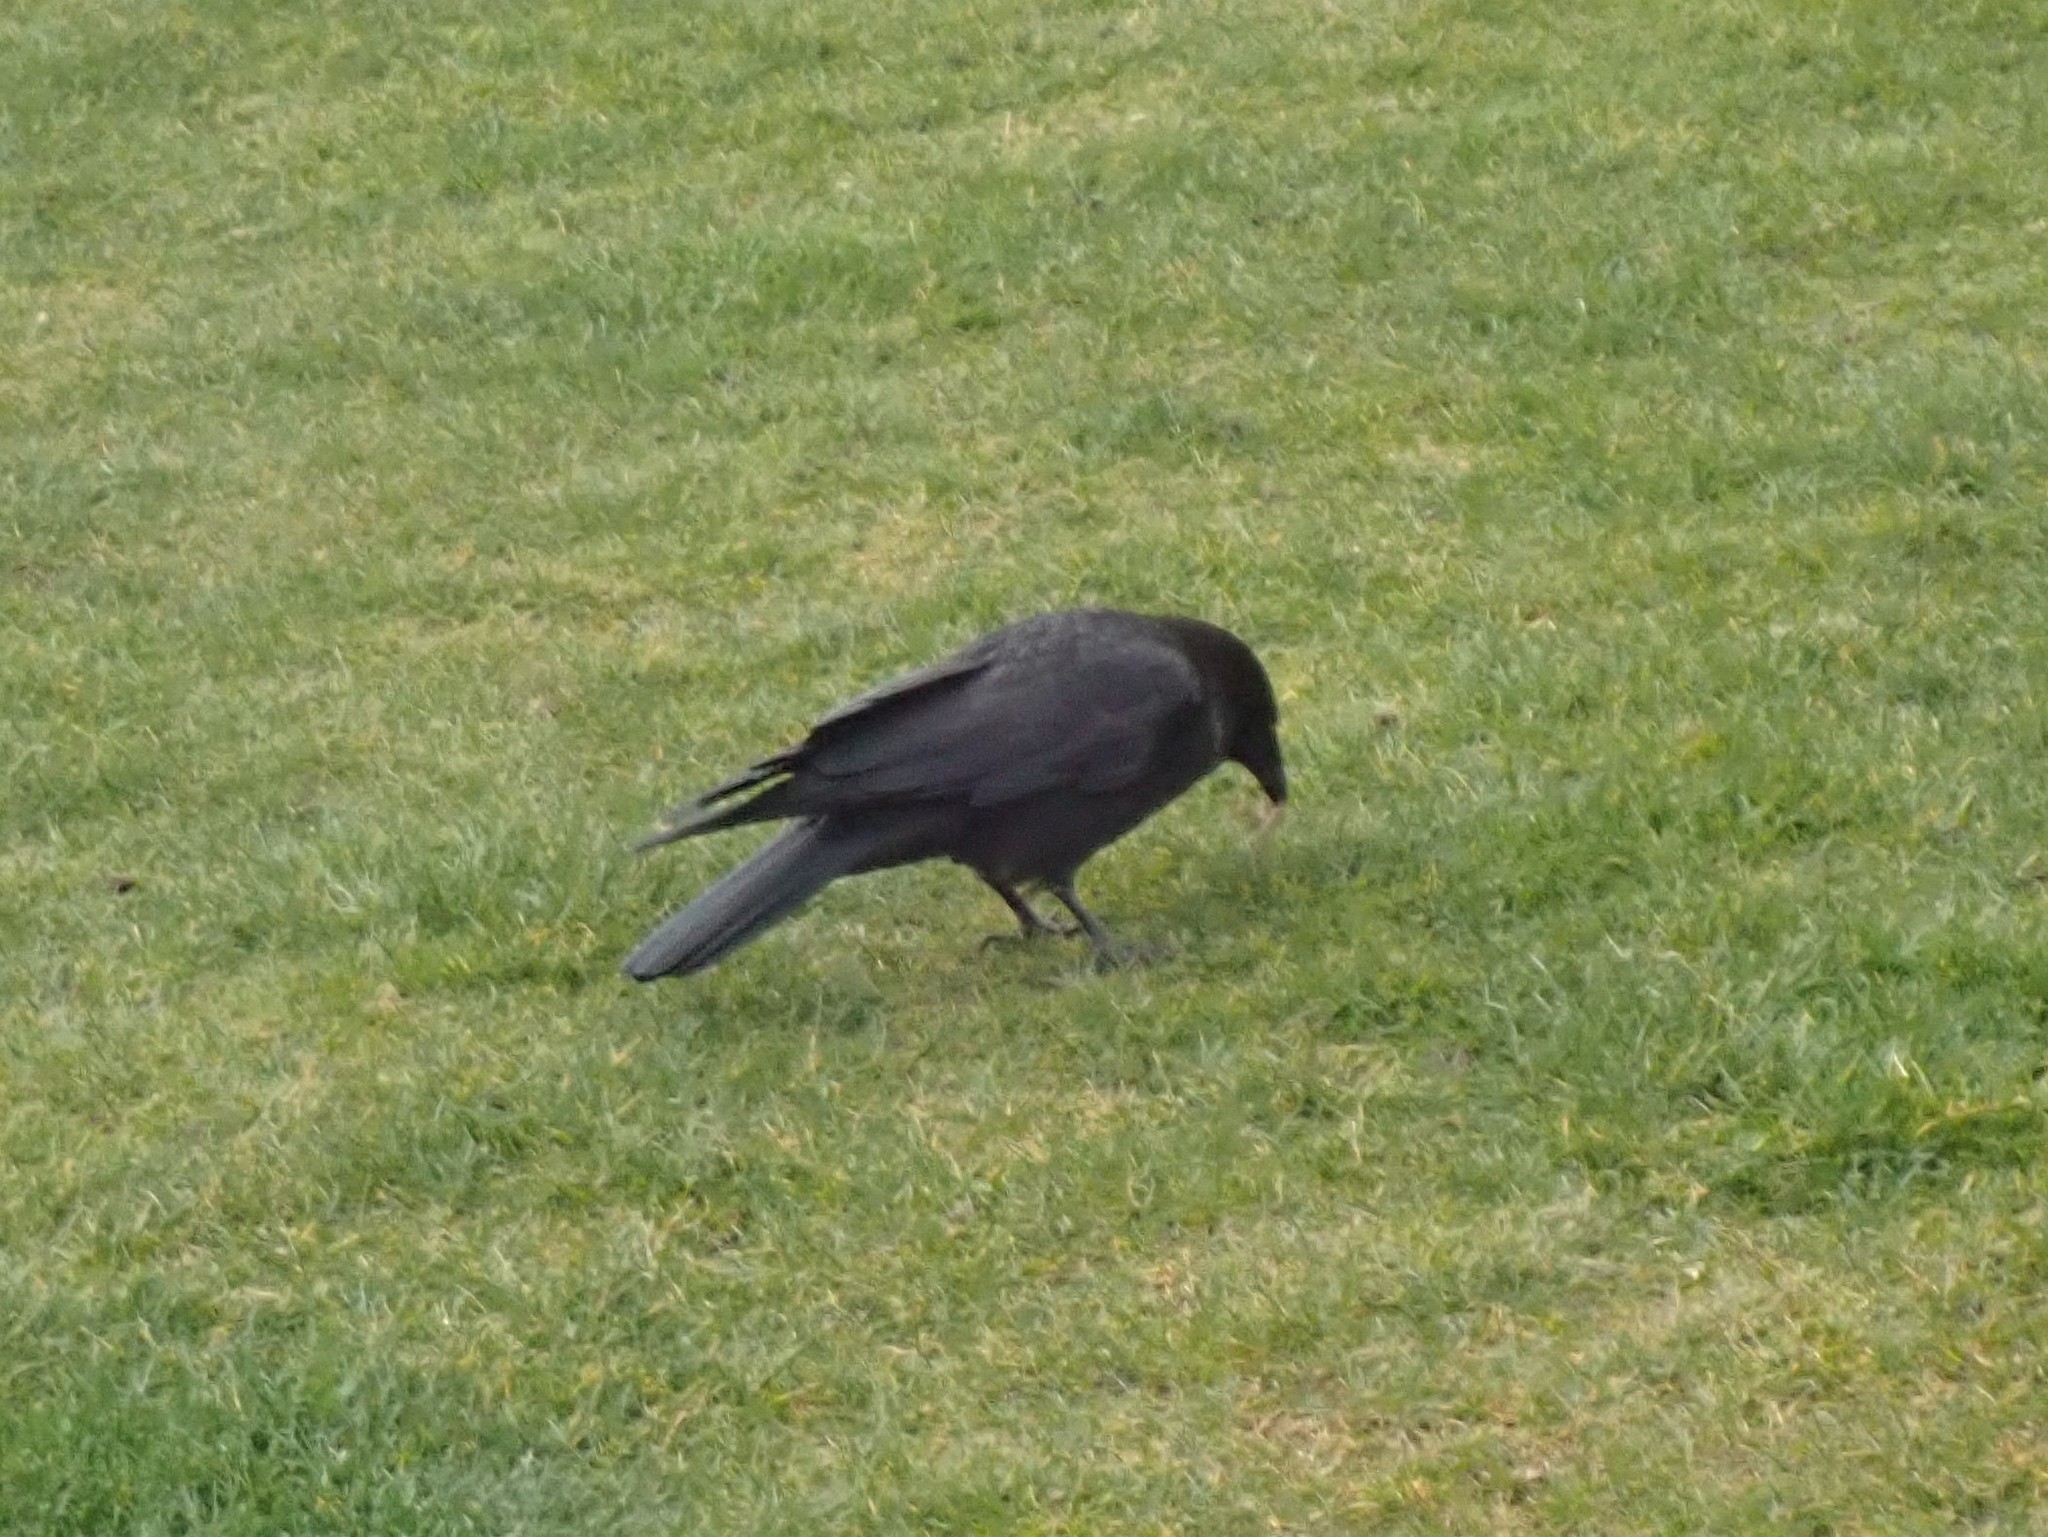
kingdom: Animalia
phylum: Chordata
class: Aves
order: Passeriformes
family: Corvidae
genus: Corvus
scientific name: Corvus brachyrhynchos
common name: American crow
